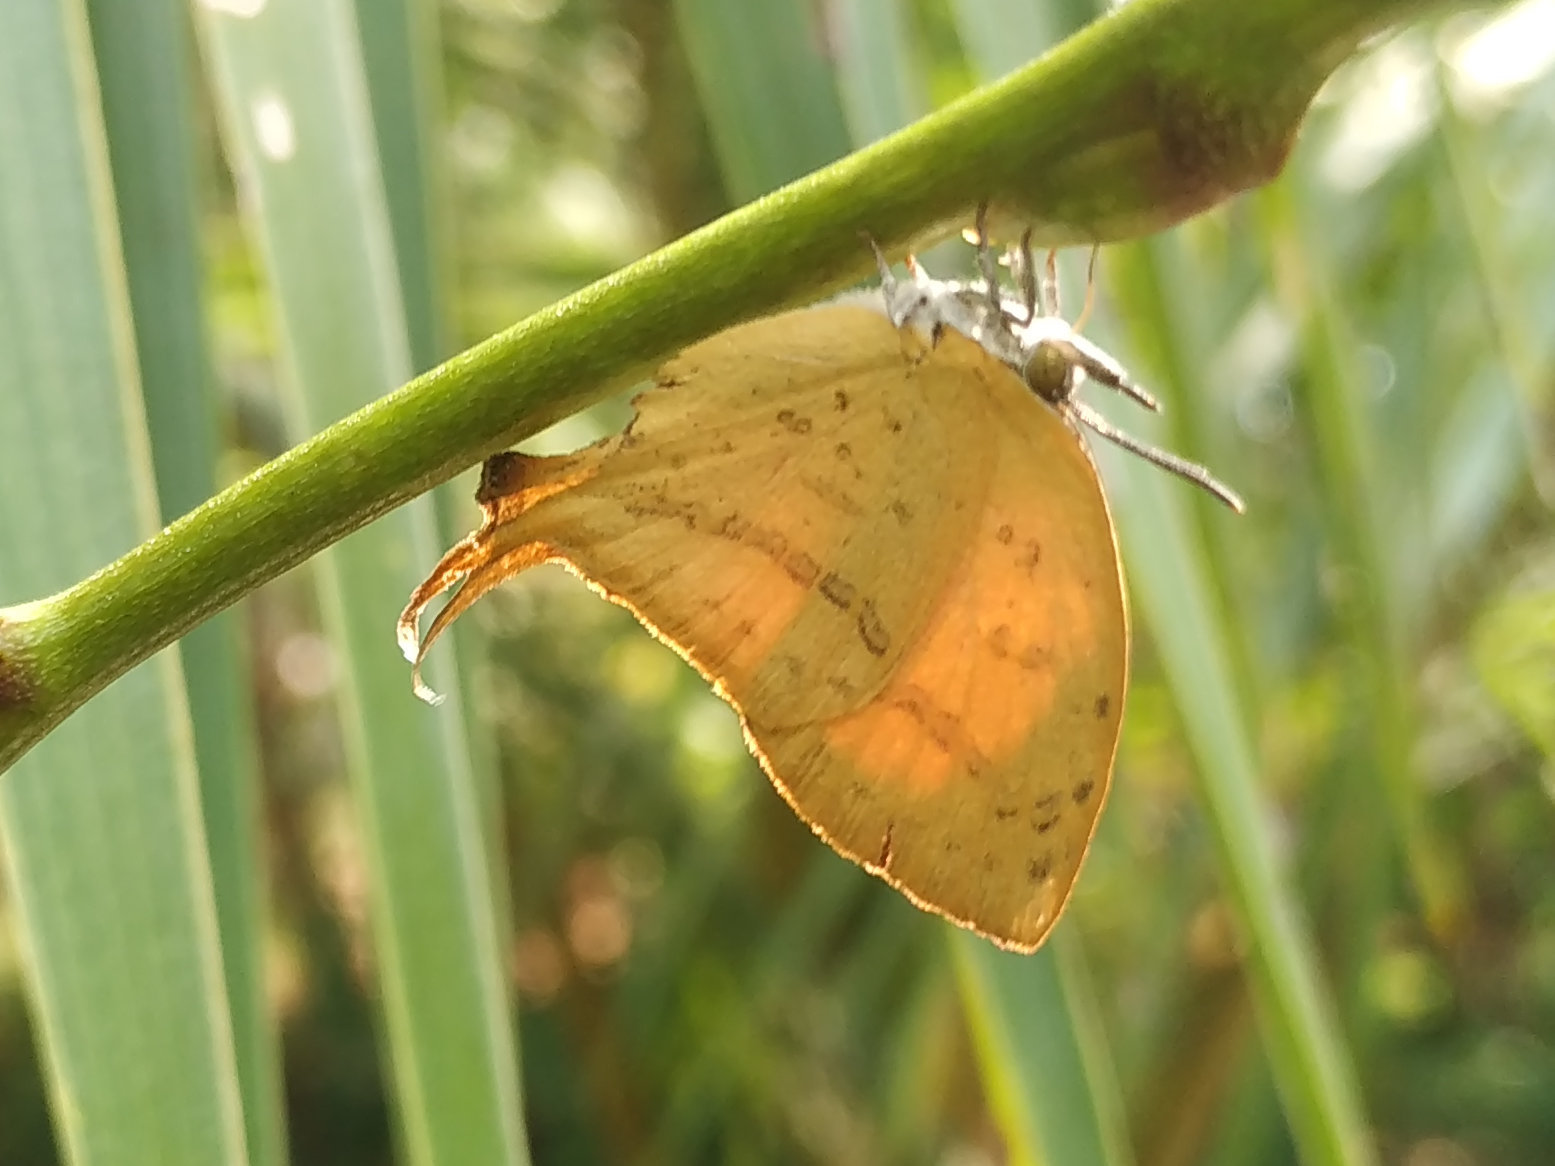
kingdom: Animalia
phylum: Arthropoda
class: Insecta
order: Lepidoptera
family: Lycaenidae
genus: Loxura
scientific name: Loxura atymnus
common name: Common yamfly
